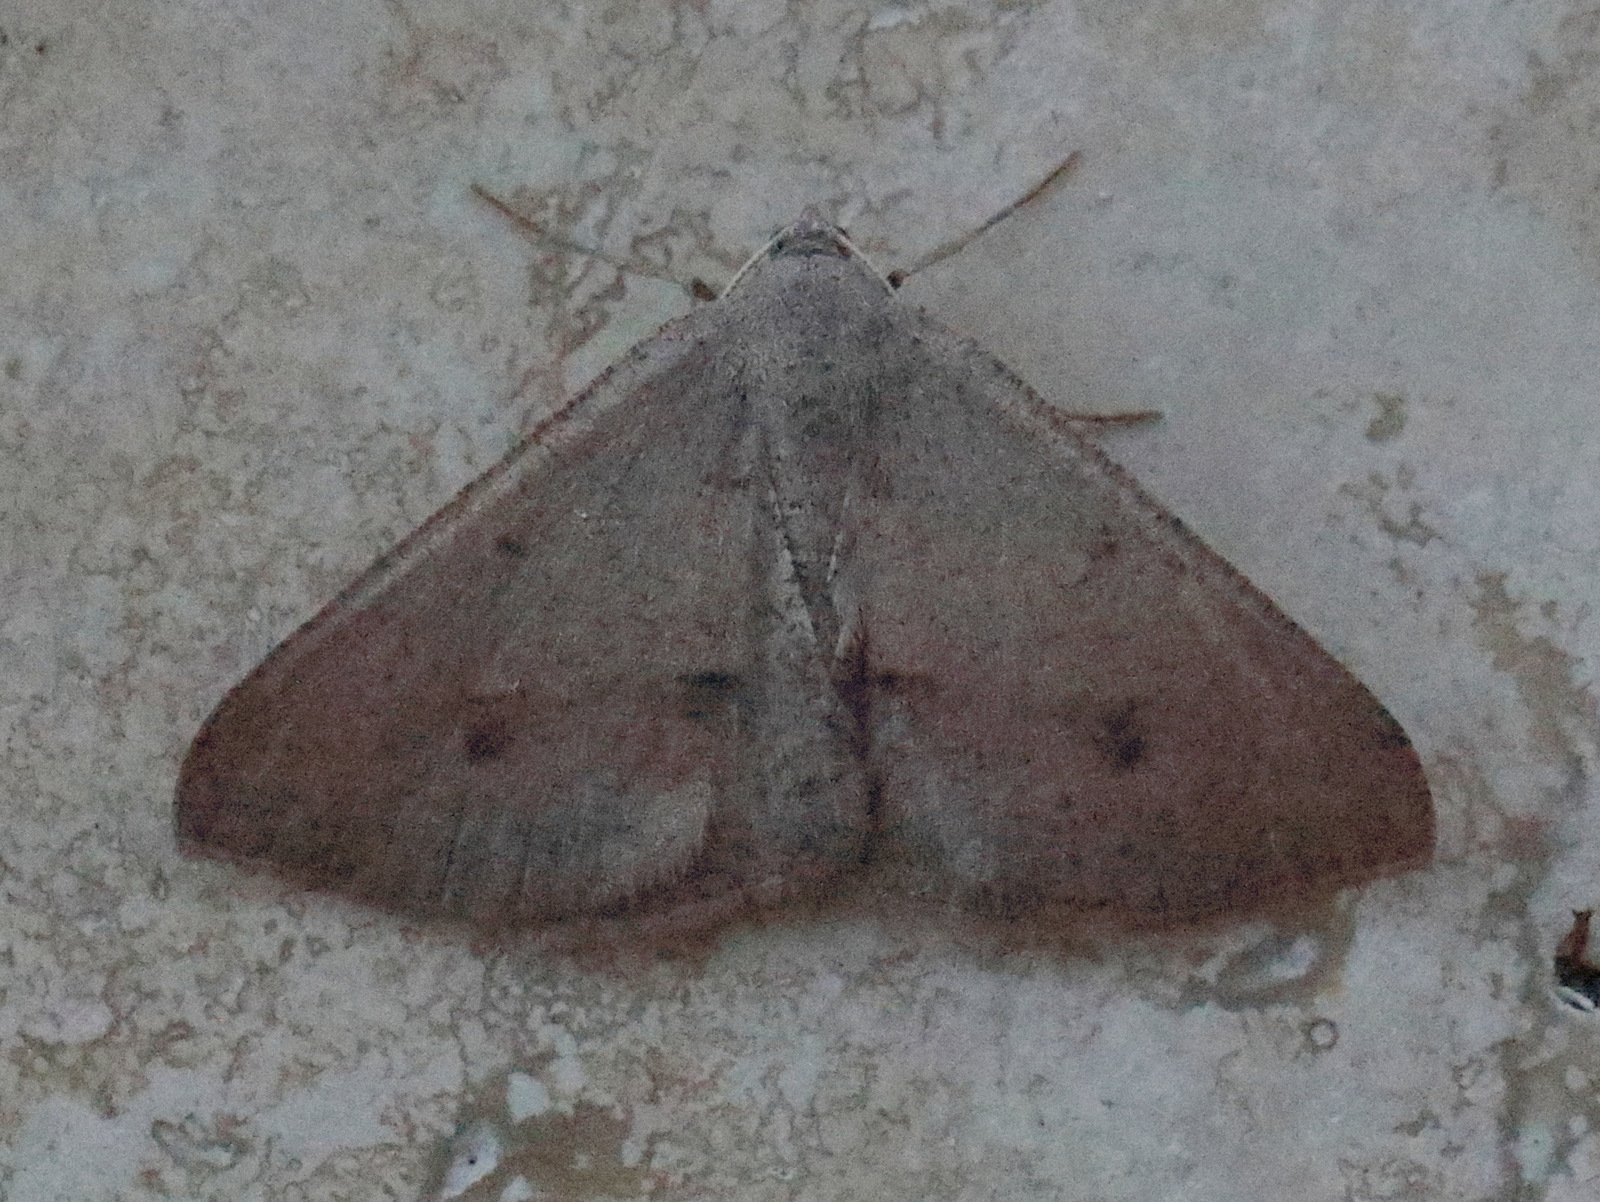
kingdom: Animalia
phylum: Arthropoda
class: Insecta
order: Lepidoptera
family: Geometridae
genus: Isturgia
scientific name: Isturgia
